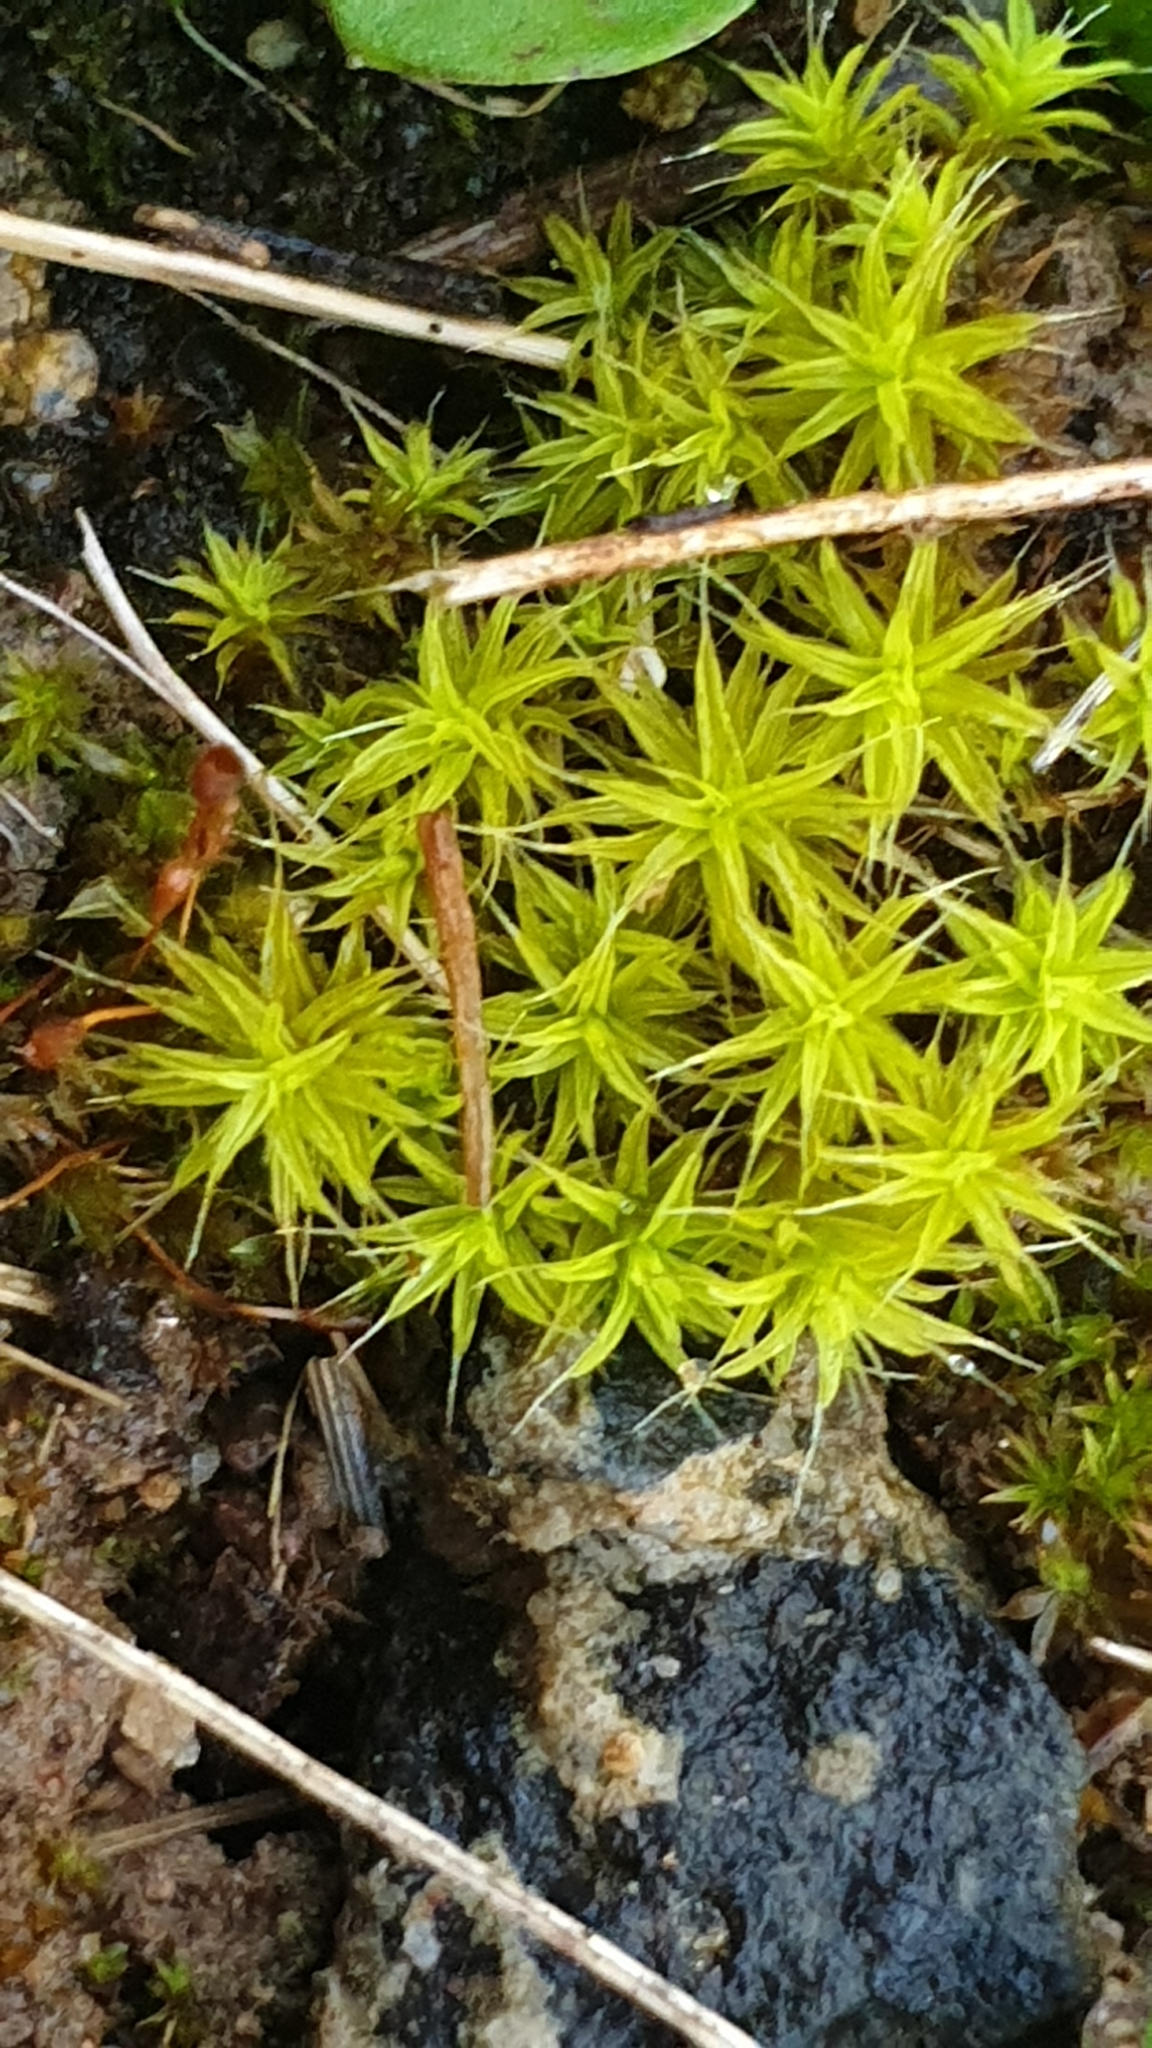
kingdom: Plantae
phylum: Bryophyta
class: Bryopsida
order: Pottiales
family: Pottiaceae
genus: Pseudocrossidium
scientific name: Pseudocrossidium crinitum
